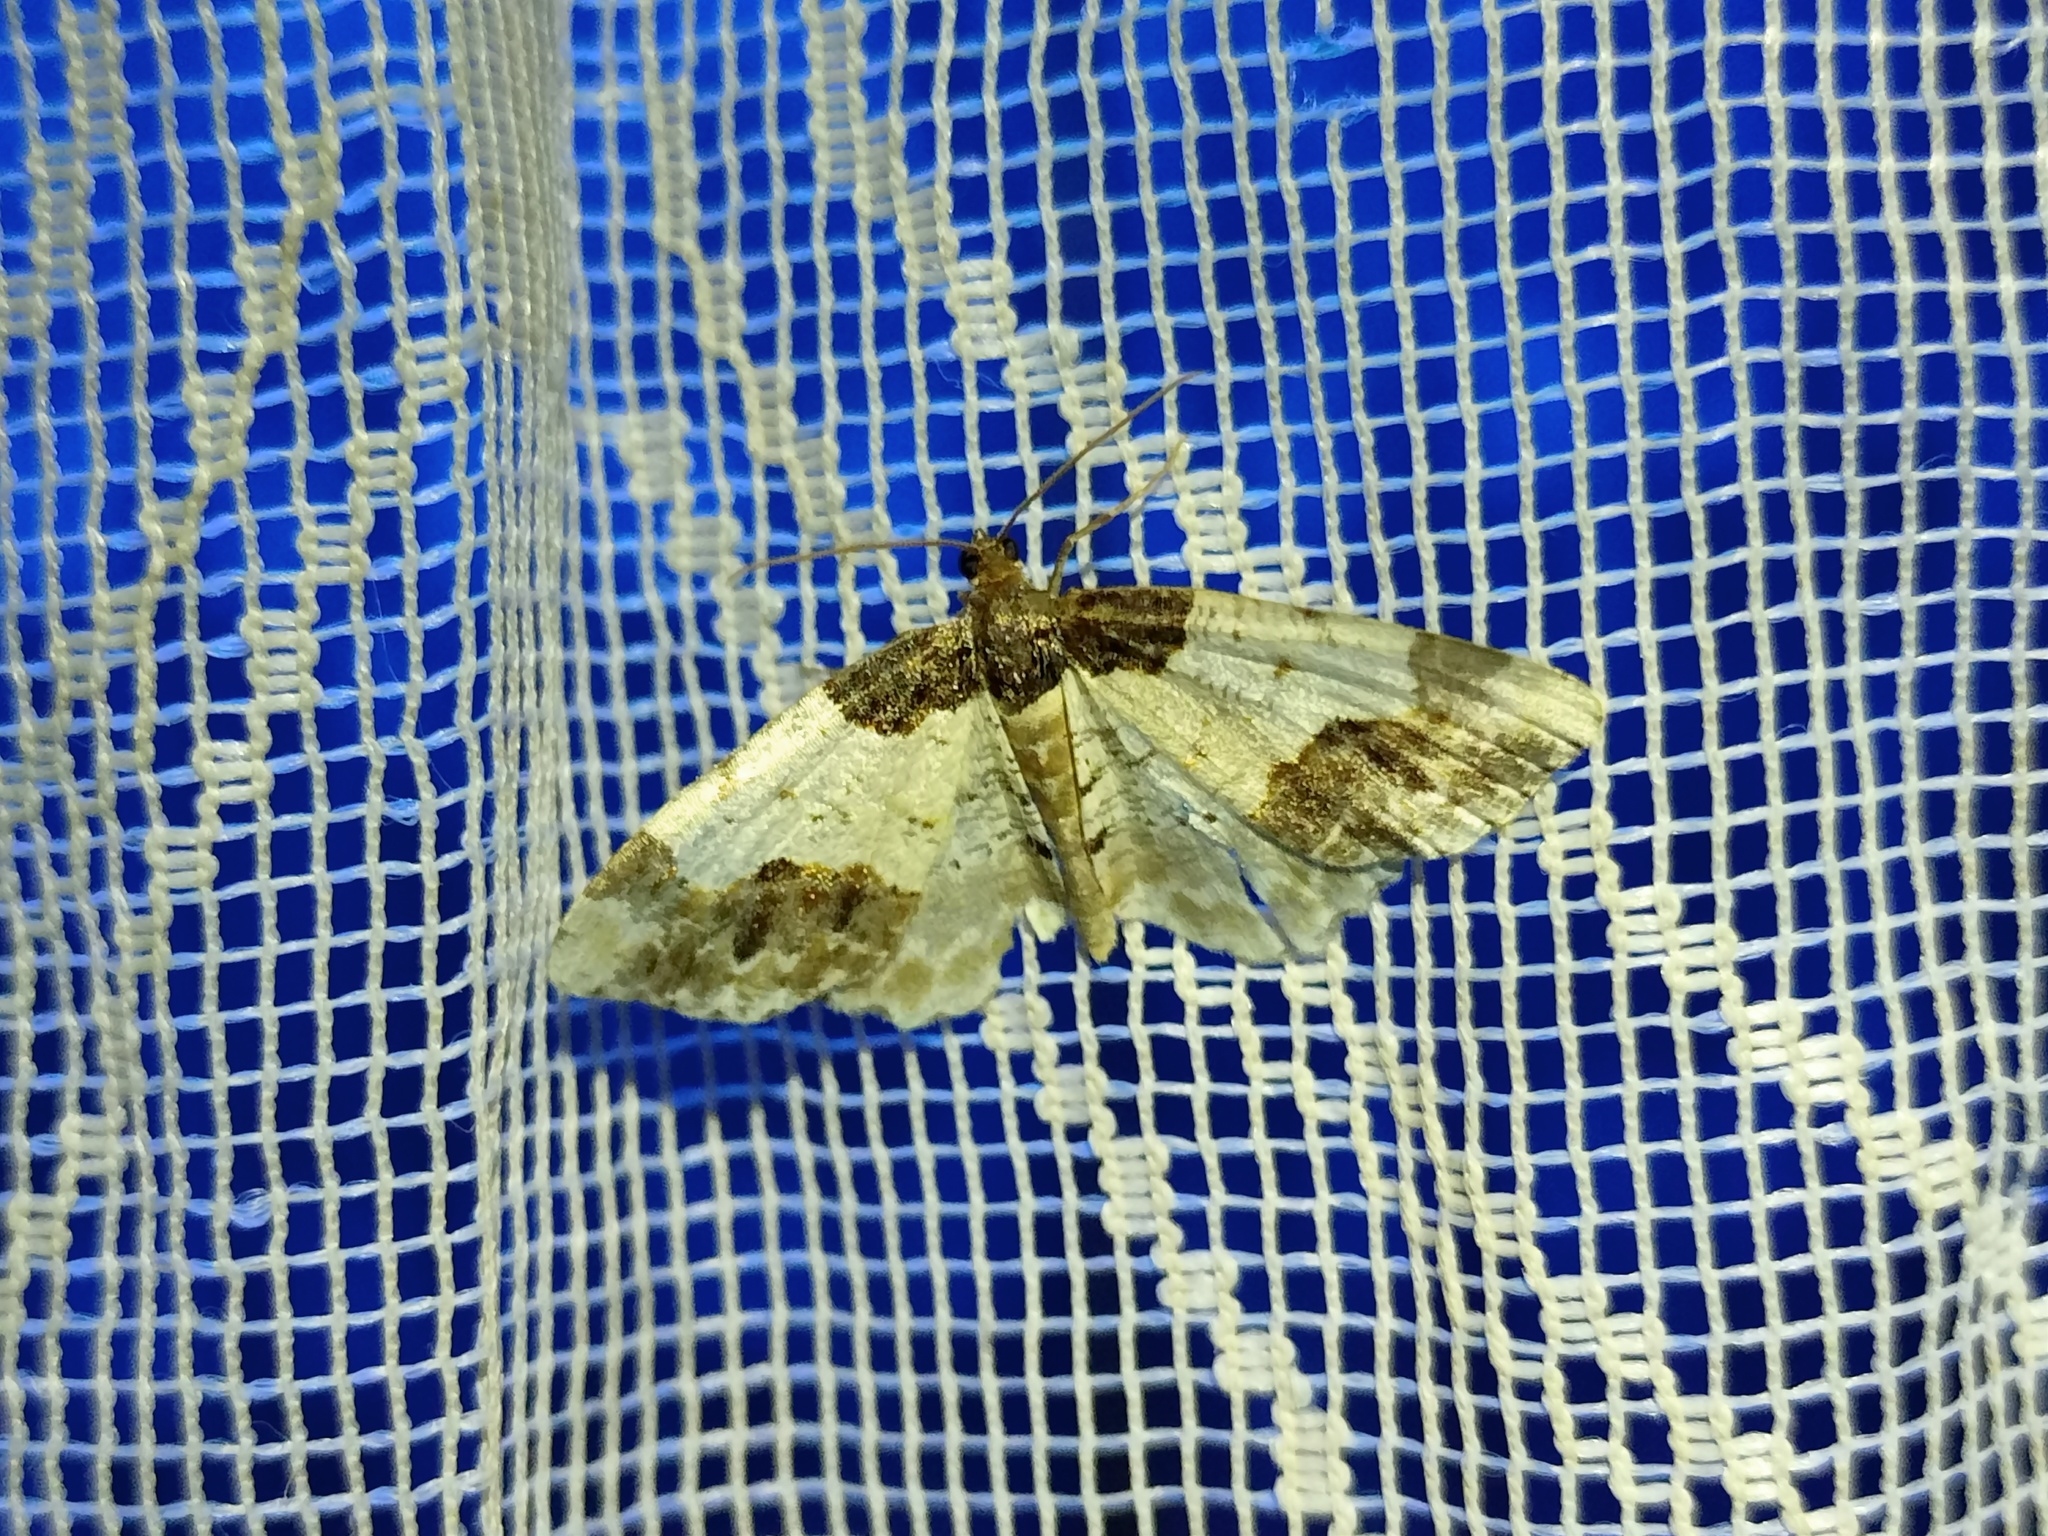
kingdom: Animalia
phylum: Arthropoda
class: Insecta
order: Lepidoptera
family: Geometridae
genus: Ligdia
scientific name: Ligdia adustata
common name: Scorched carpet
